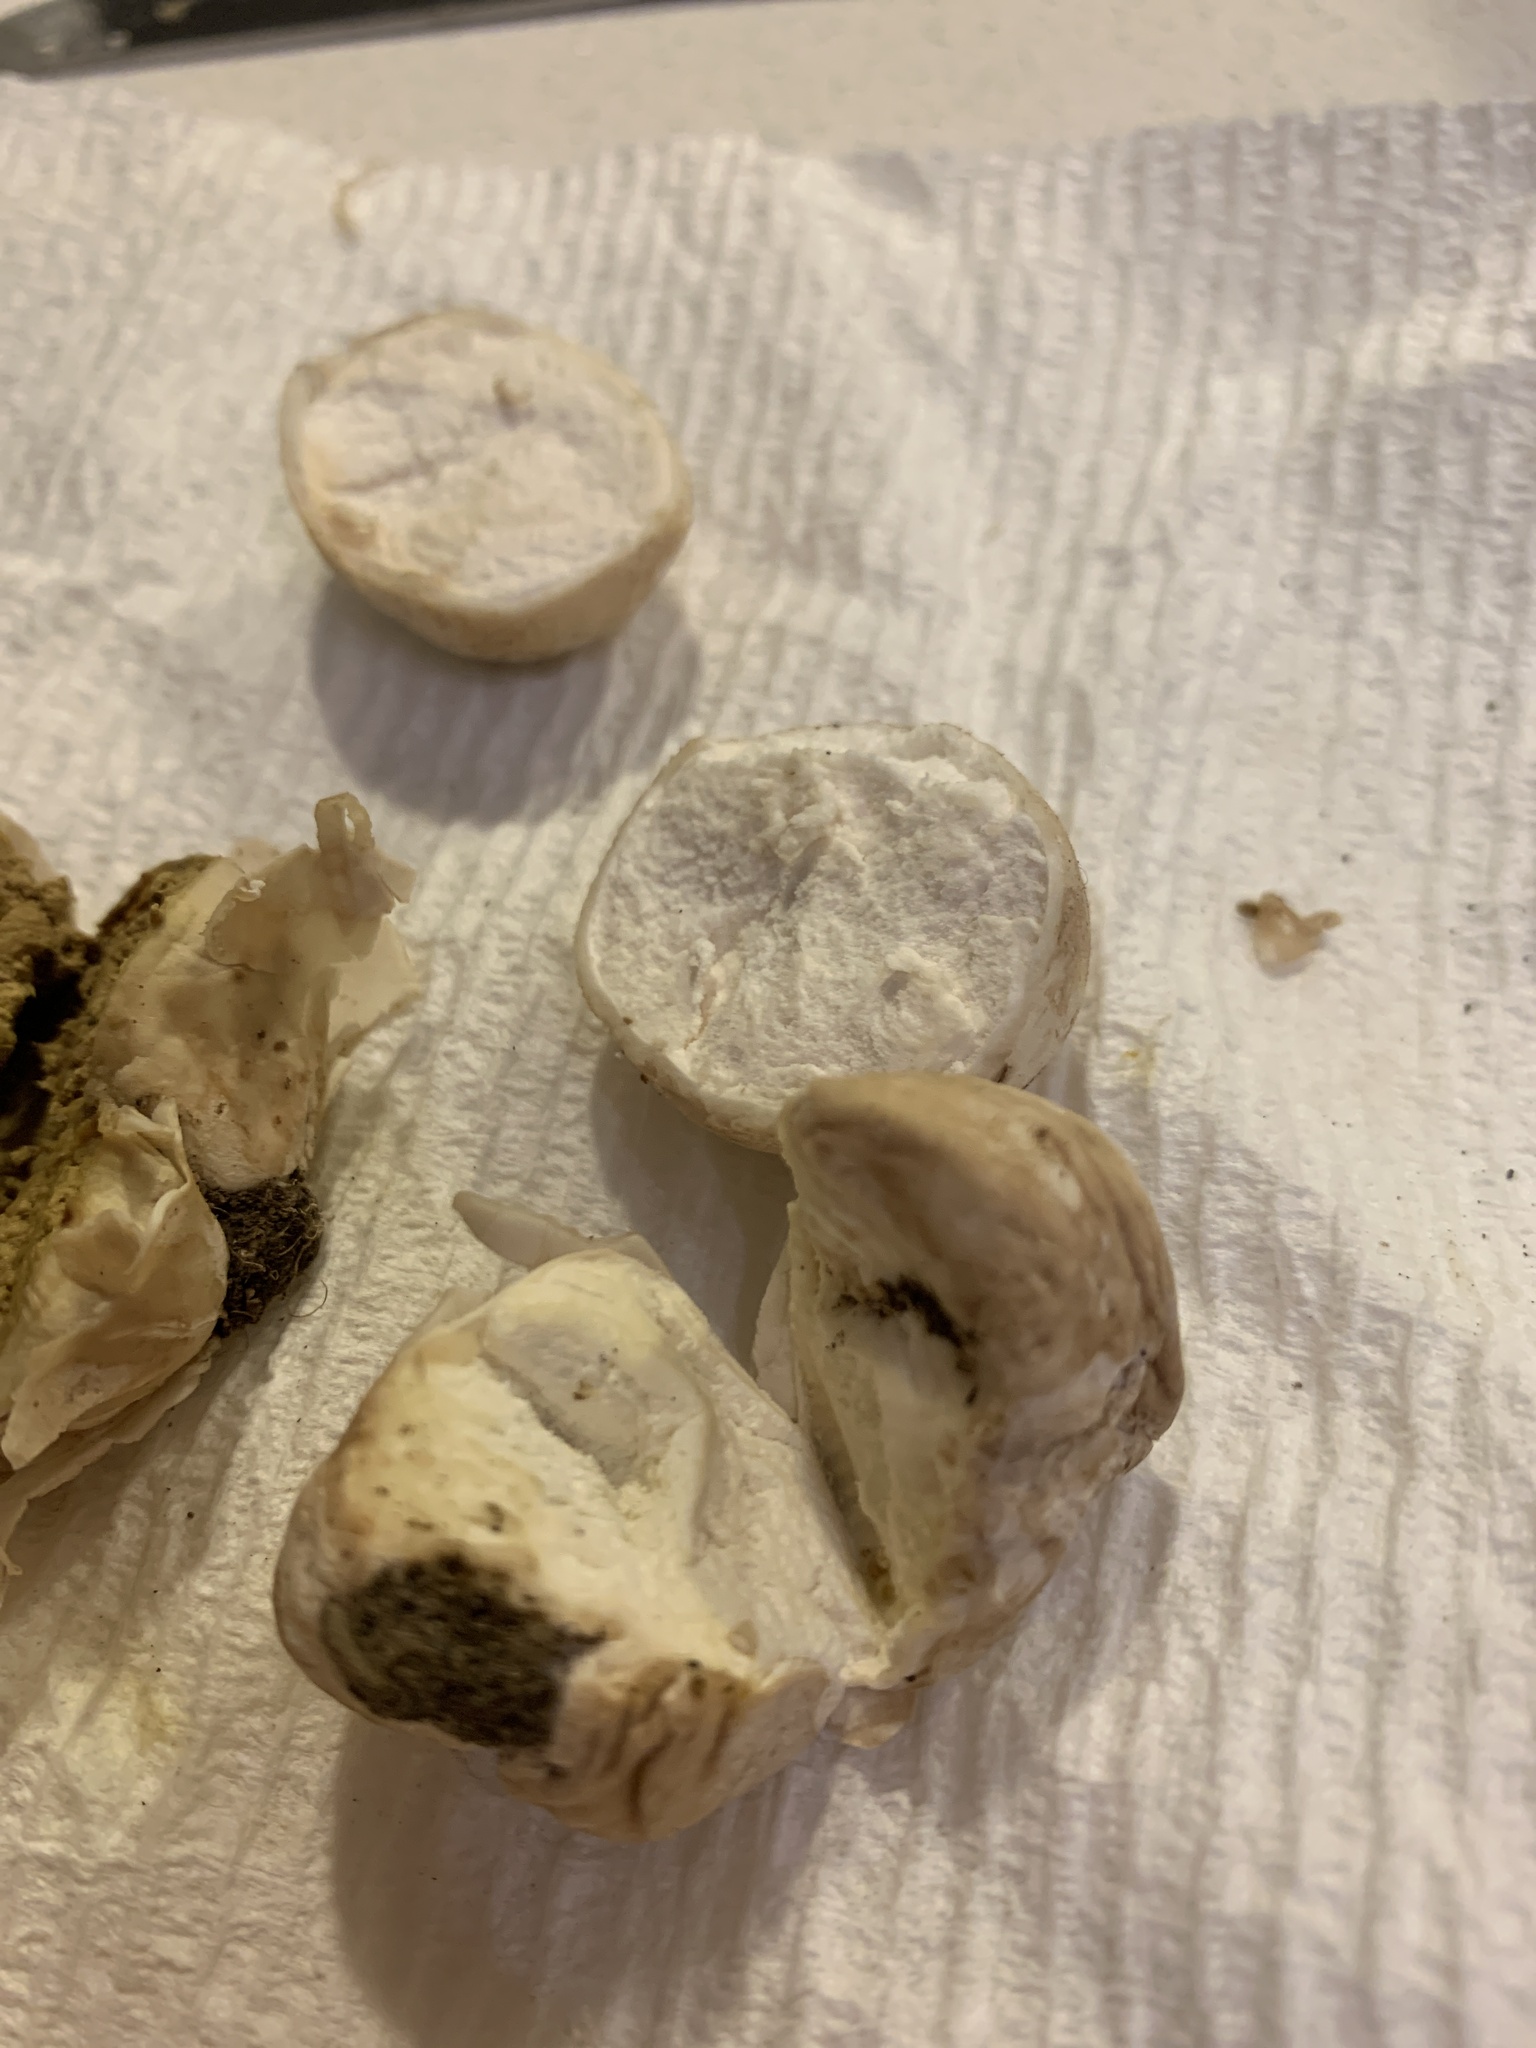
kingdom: Fungi
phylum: Basidiomycota
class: Agaricomycetes
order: Agaricales
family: Lycoperdaceae
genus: Bovista
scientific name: Bovista plumbea
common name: Grey puffball
